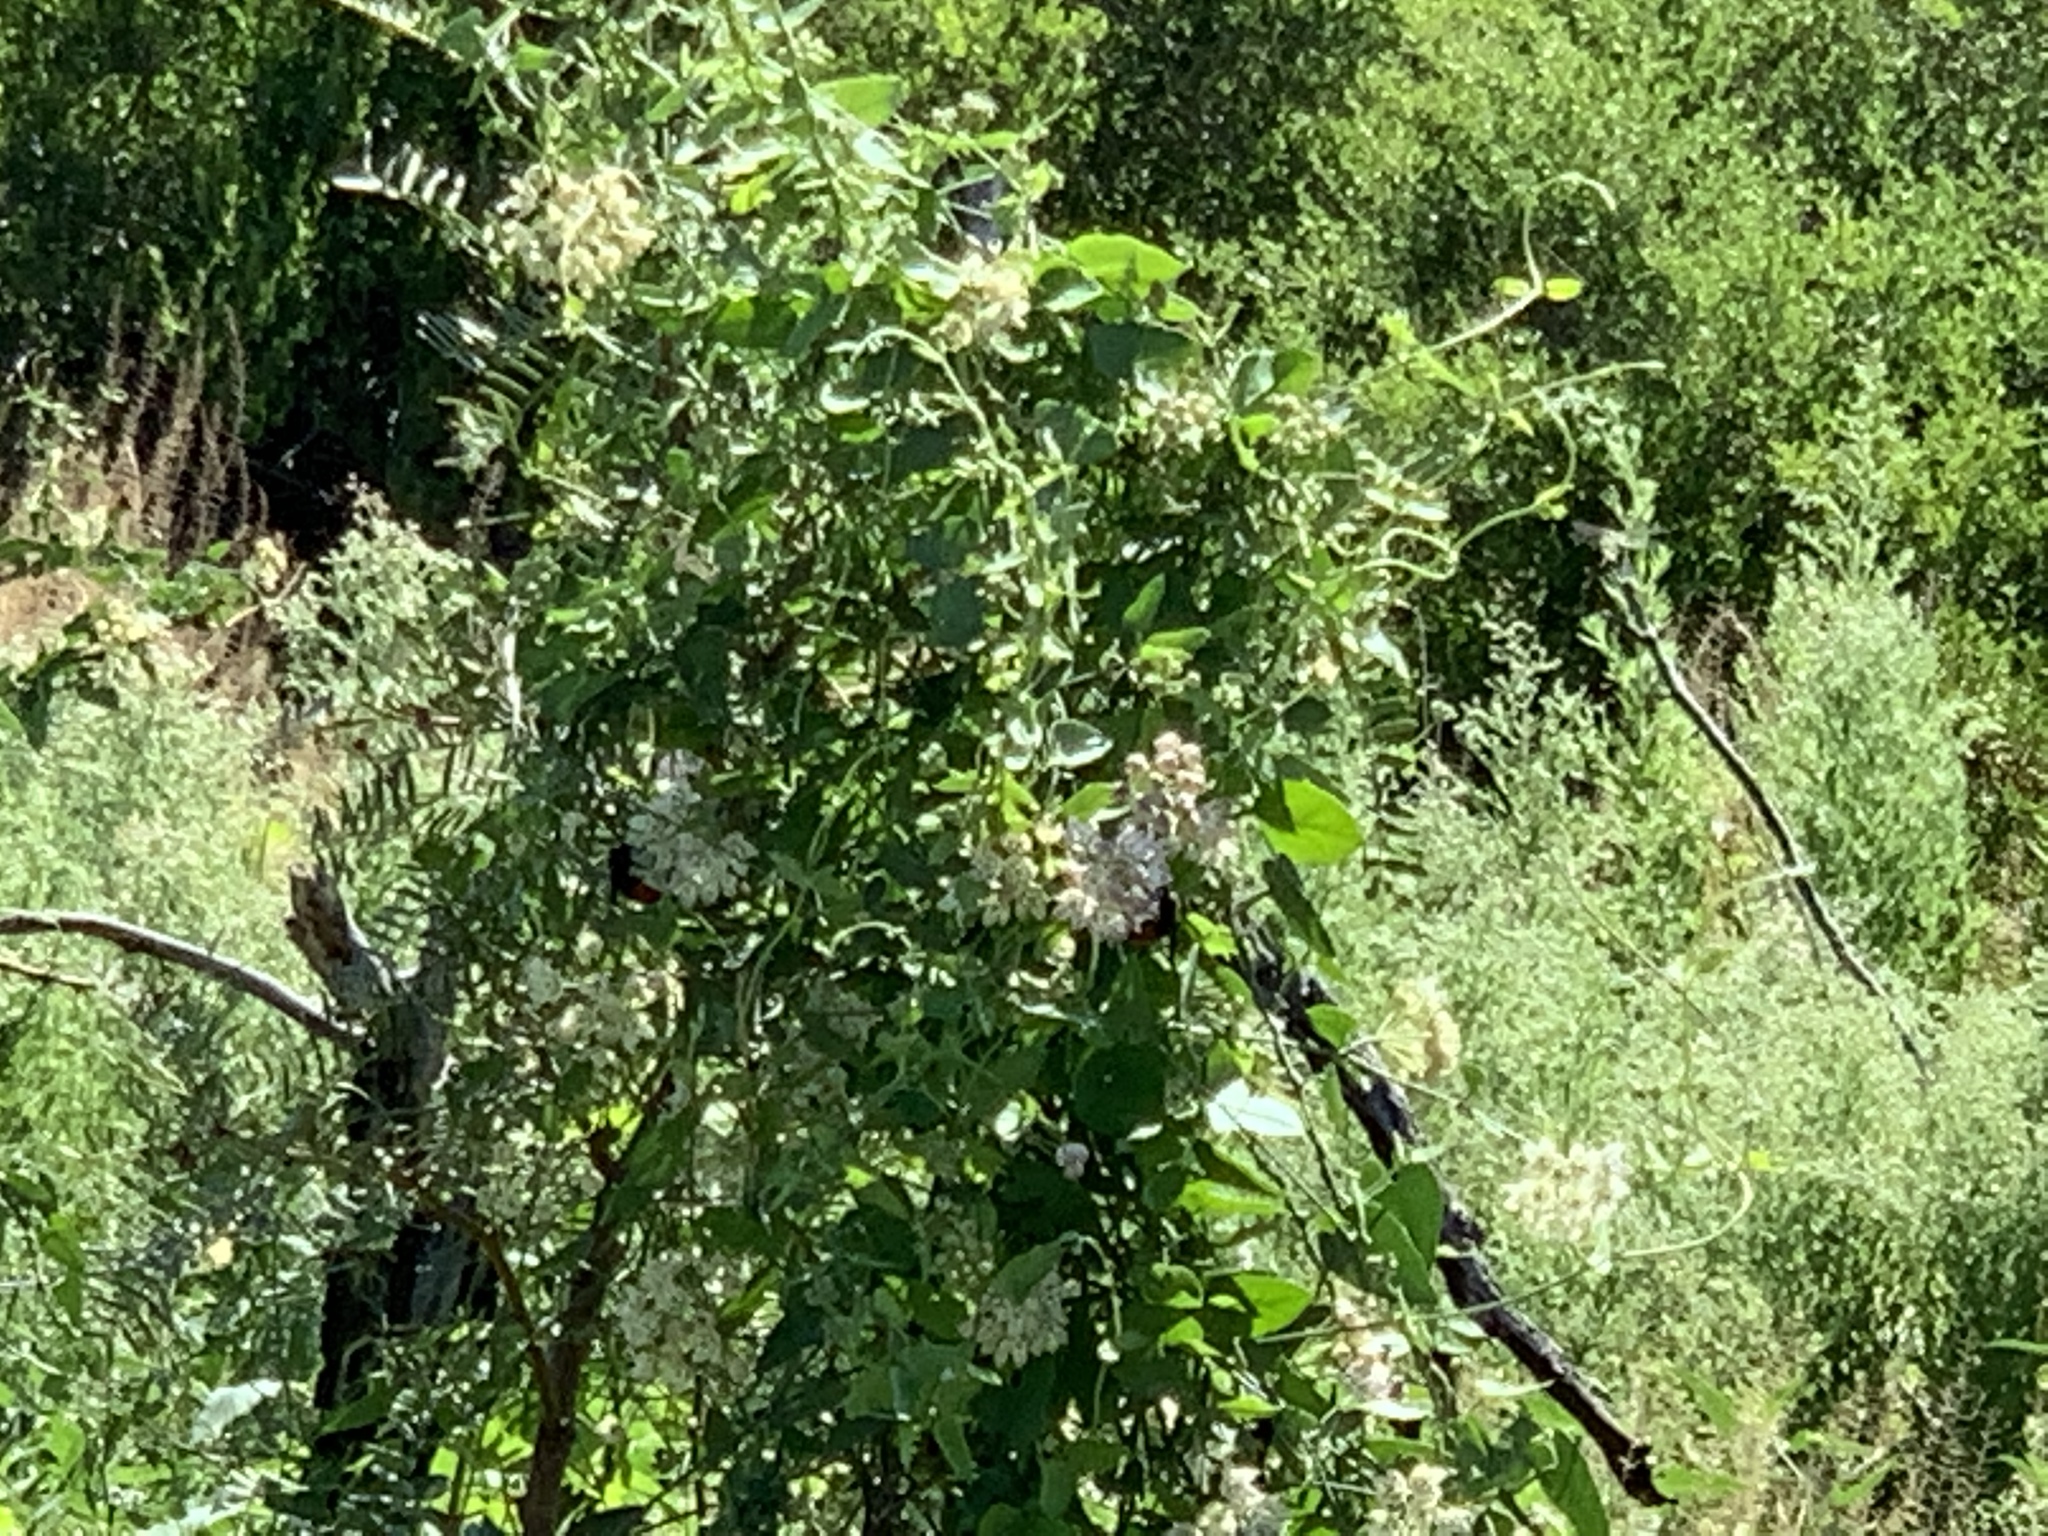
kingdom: Plantae
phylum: Tracheophyta
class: Magnoliopsida
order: Gentianales
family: Apocynaceae
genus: Funastrum
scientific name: Funastrum cynanchoides
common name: Climbing-milkweed
